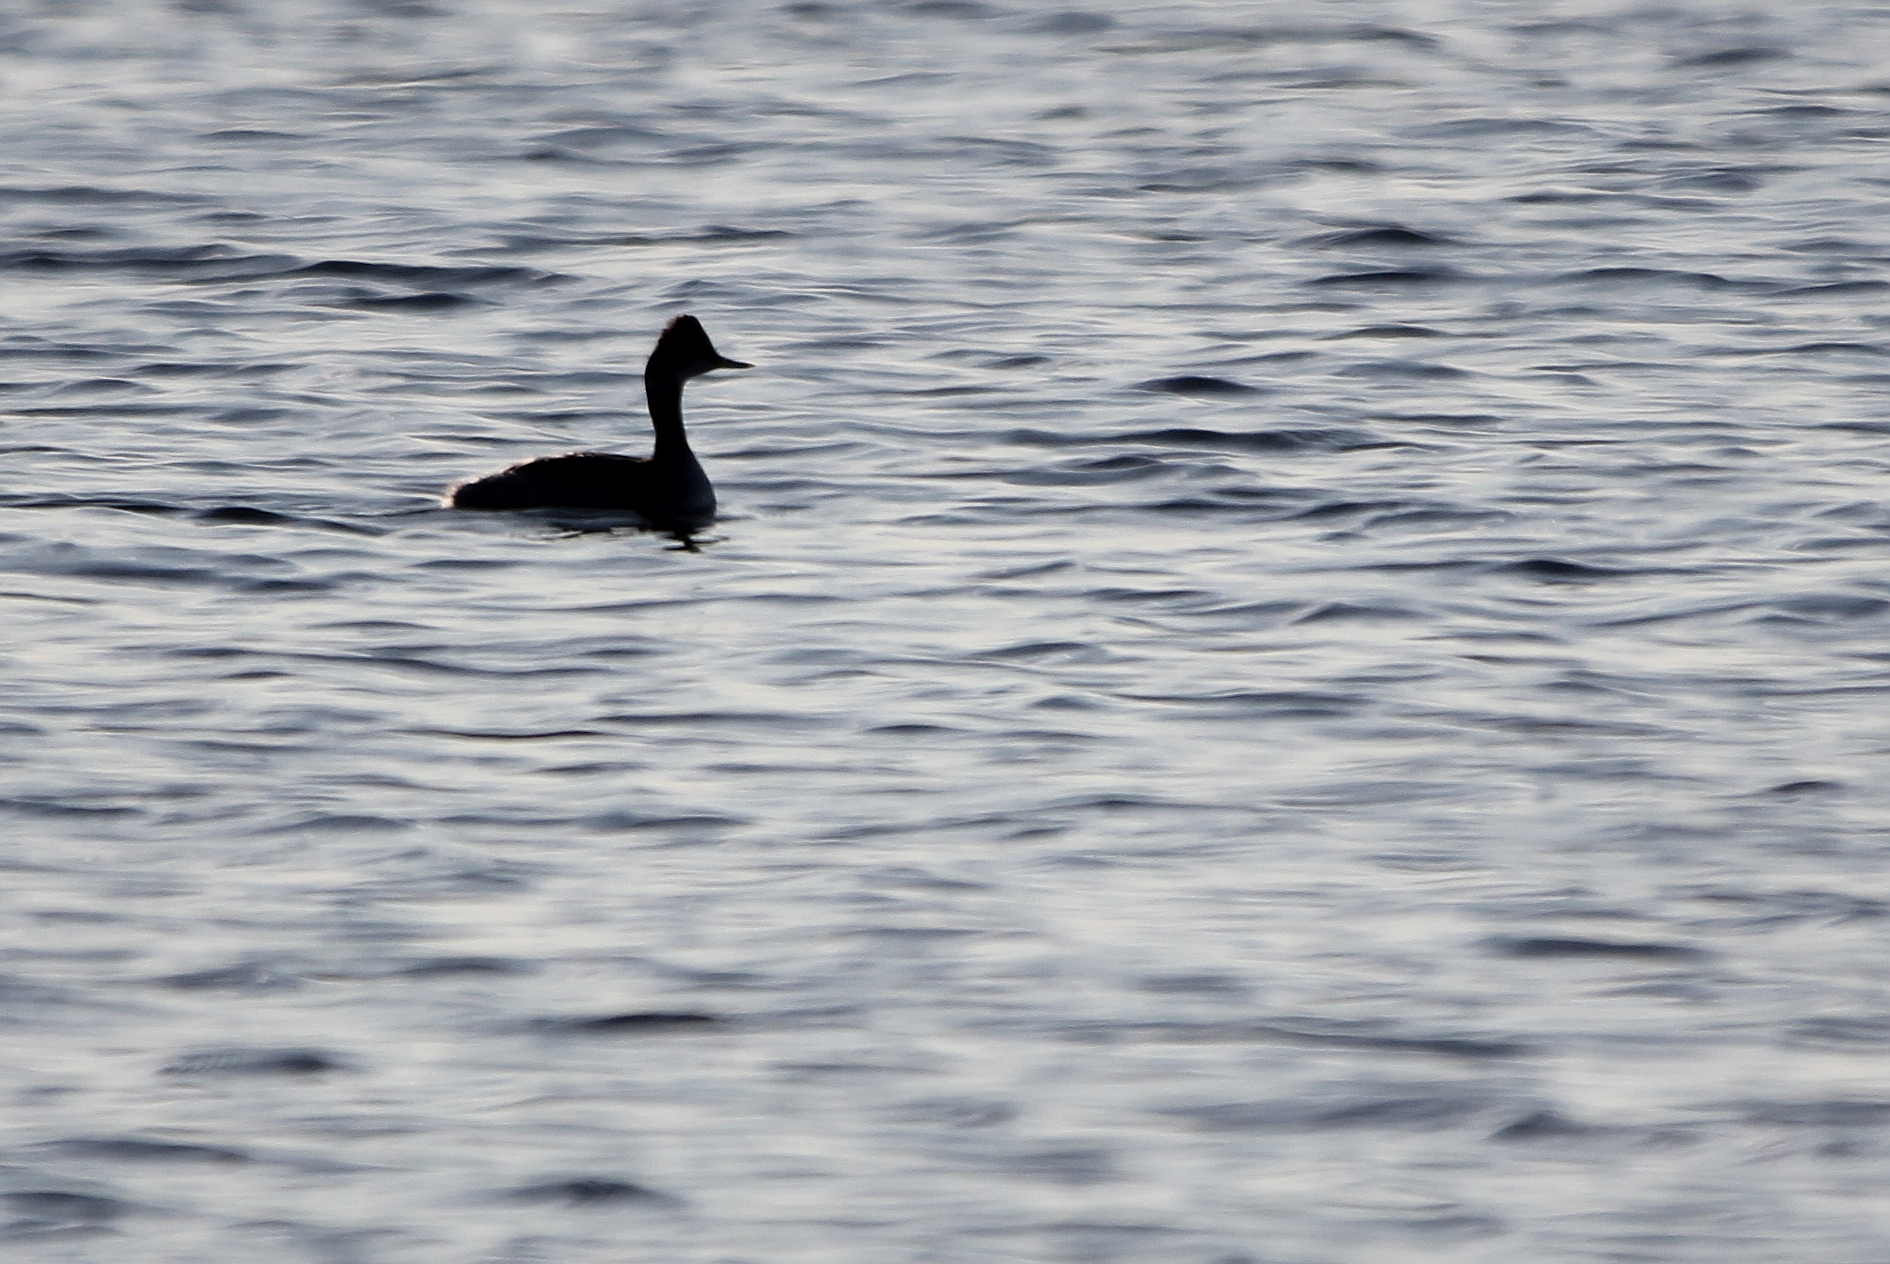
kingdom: Animalia
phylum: Chordata
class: Aves
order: Podicipediformes
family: Podicipedidae
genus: Podiceps
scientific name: Podiceps nigricollis
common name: Black-necked grebe
